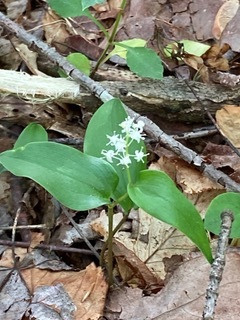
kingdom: Plantae
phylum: Tracheophyta
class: Liliopsida
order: Asparagales
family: Asparagaceae
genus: Maianthemum
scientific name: Maianthemum canadense
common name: False lily-of-the-valley
